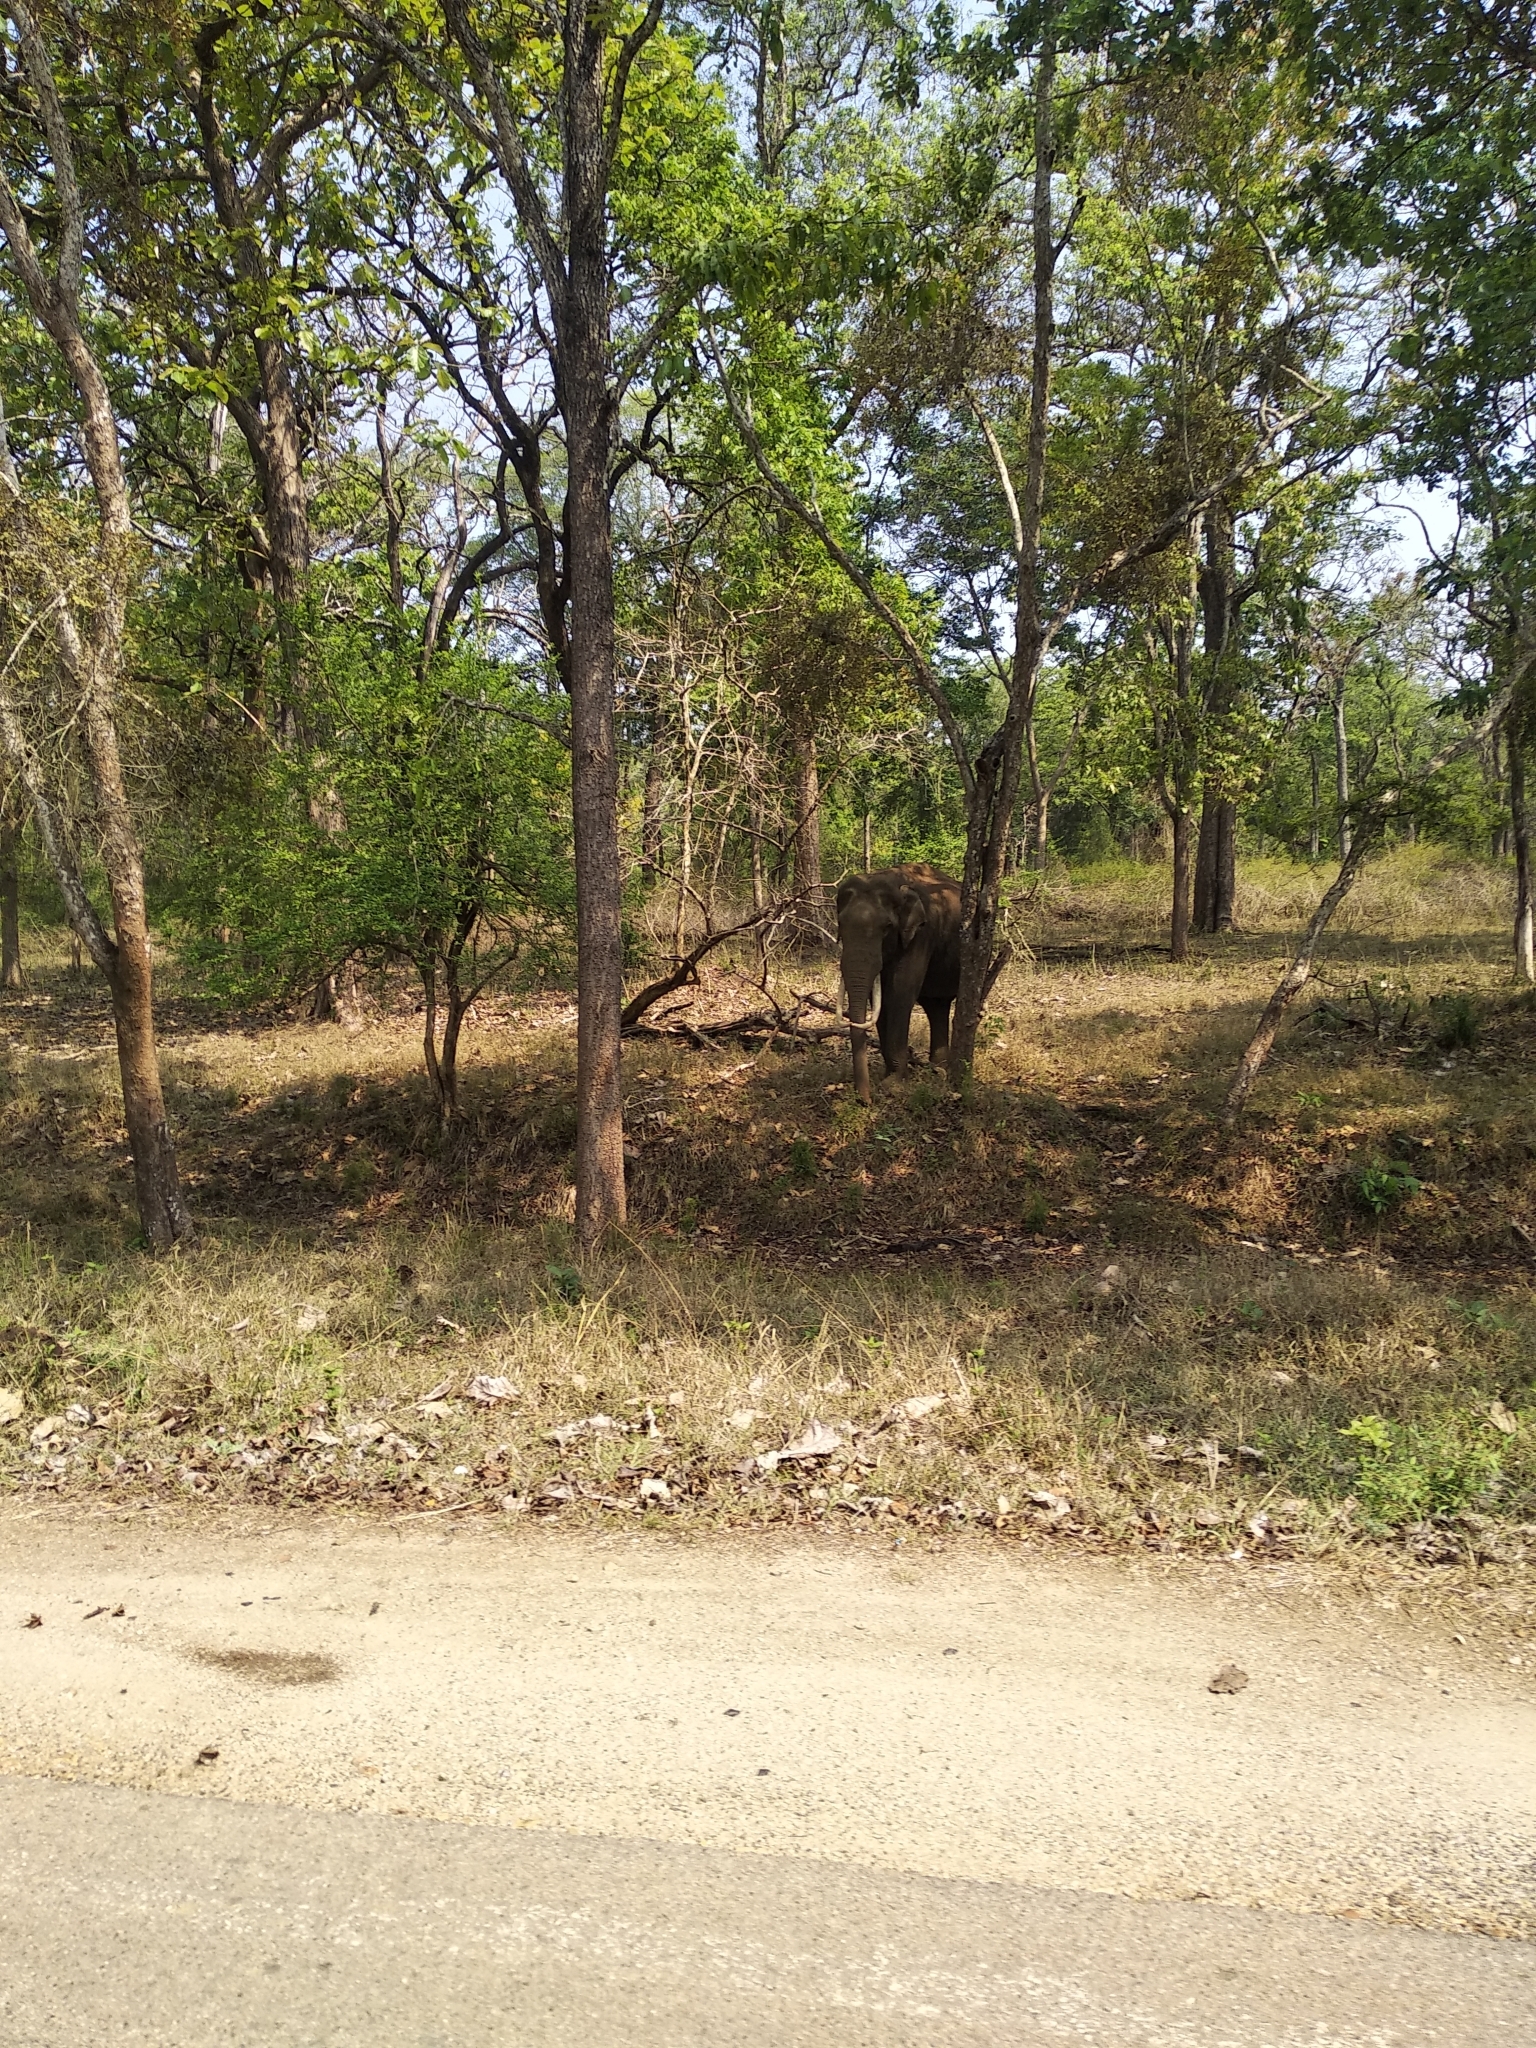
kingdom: Animalia
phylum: Chordata
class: Mammalia
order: Proboscidea
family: Elephantidae
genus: Elephas
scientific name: Elephas maximus
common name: Asian elephant
